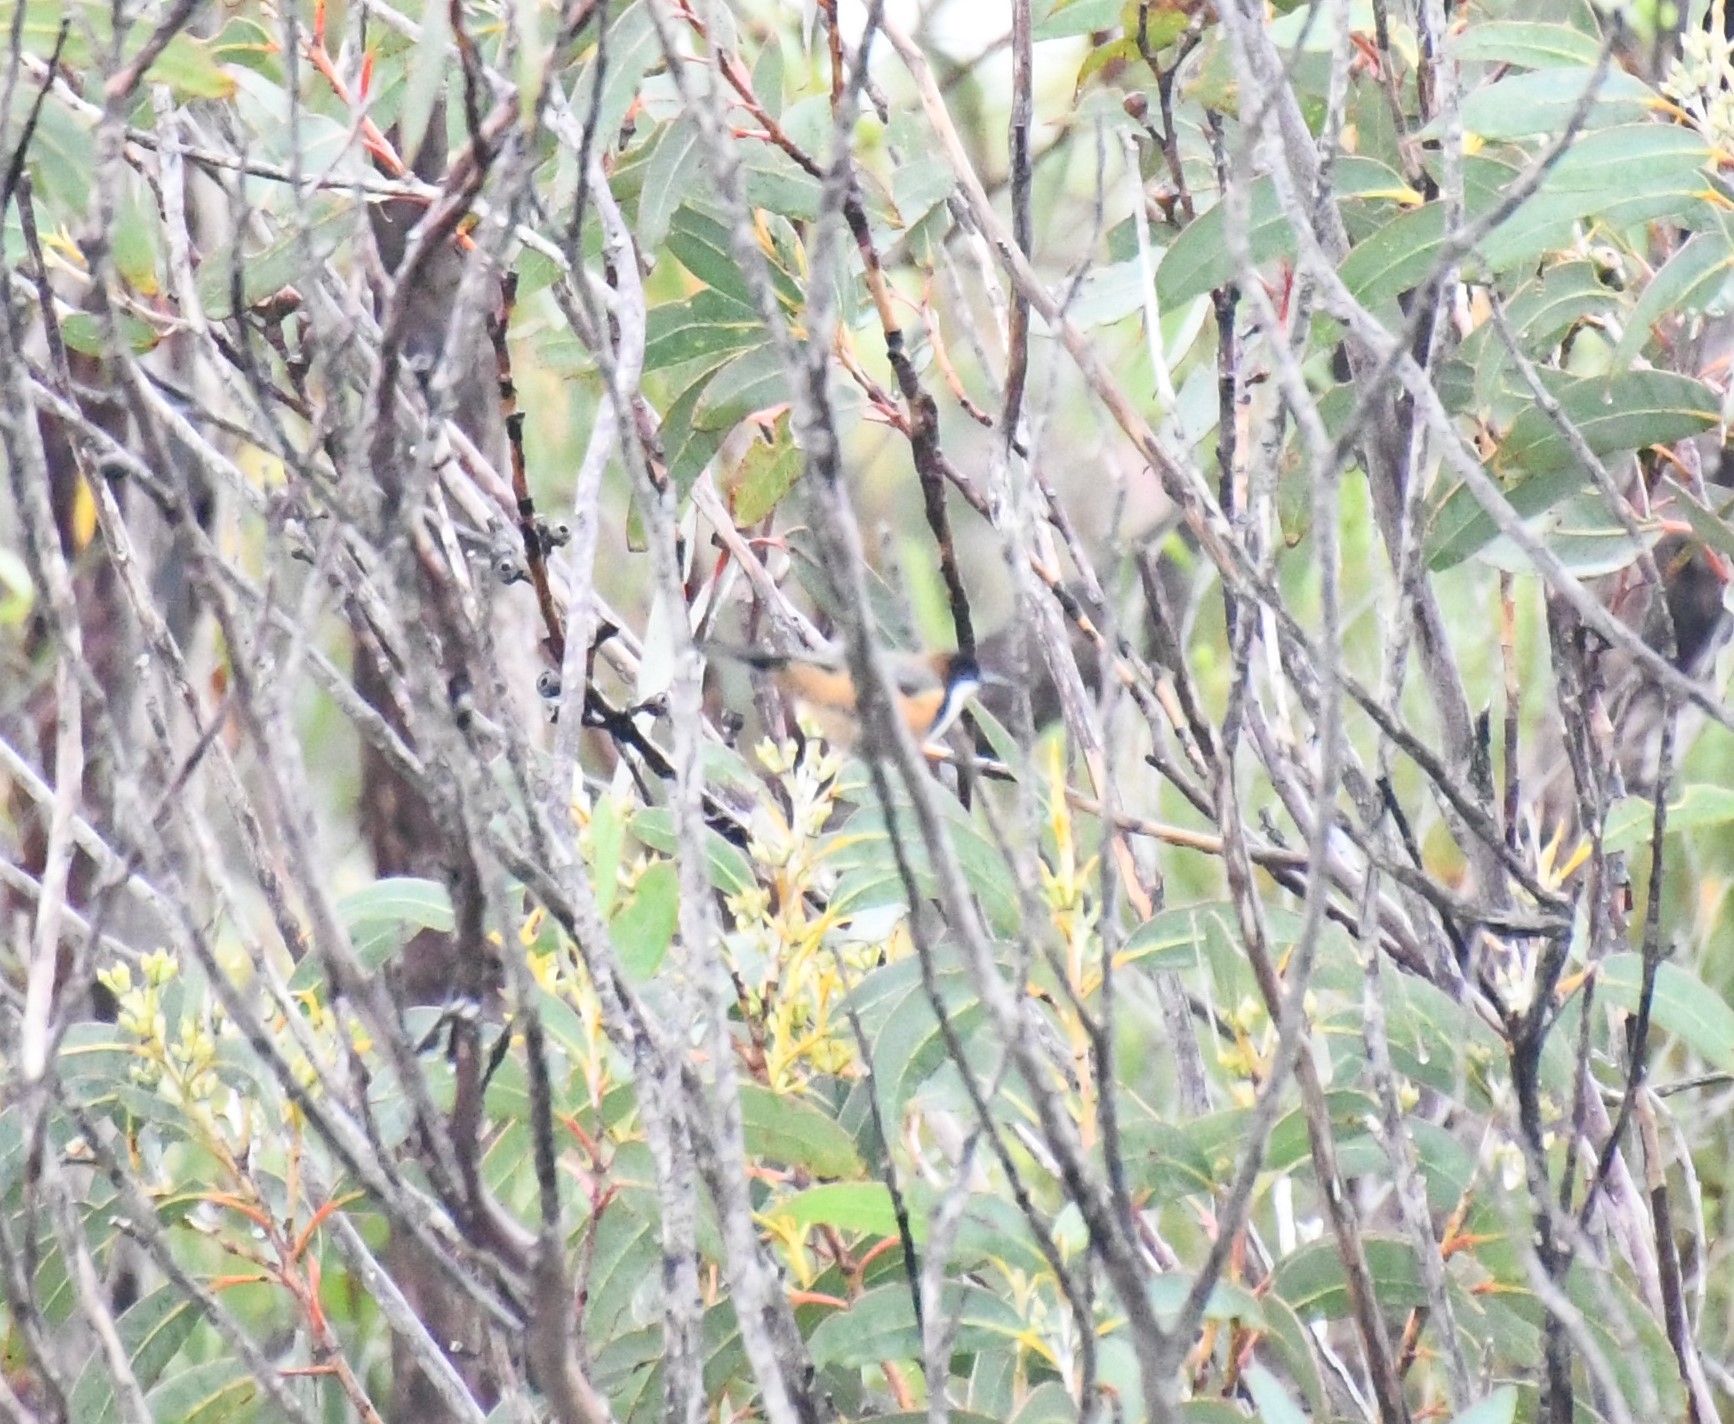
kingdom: Animalia
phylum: Chordata
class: Aves
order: Passeriformes
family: Meliphagidae
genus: Acanthorhynchus
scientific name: Acanthorhynchus tenuirostris
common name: Eastern spinebill
